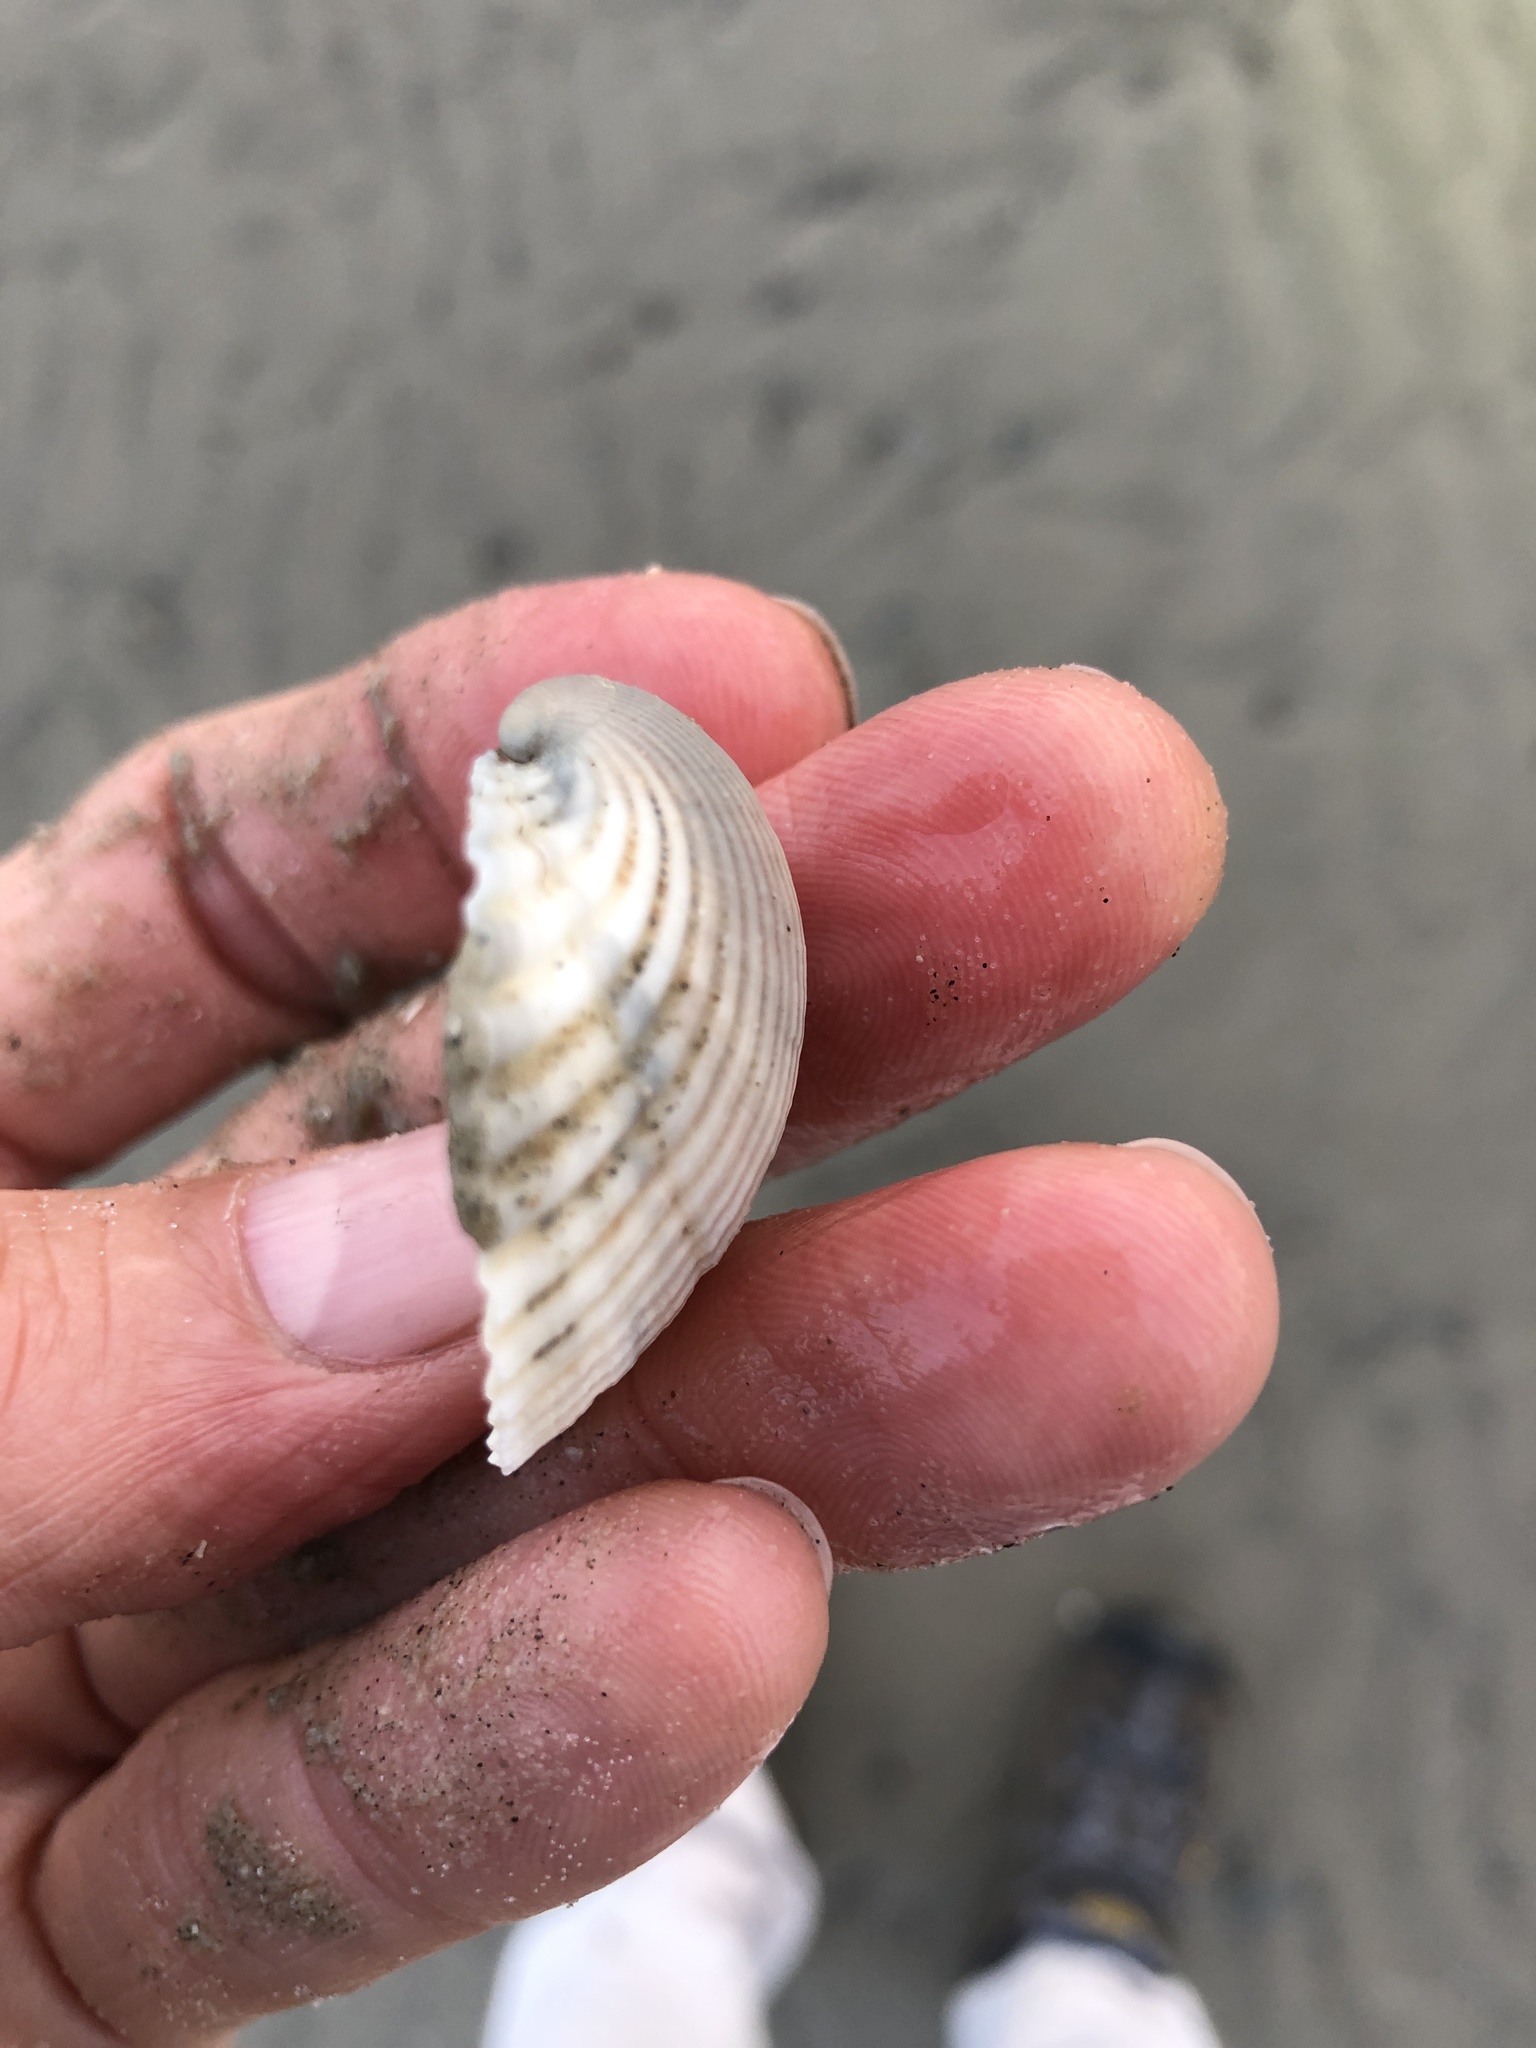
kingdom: Animalia
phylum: Mollusca
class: Bivalvia
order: Arcida
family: Arcidae
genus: Lunarca
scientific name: Lunarca ovalis
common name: Blood ark
